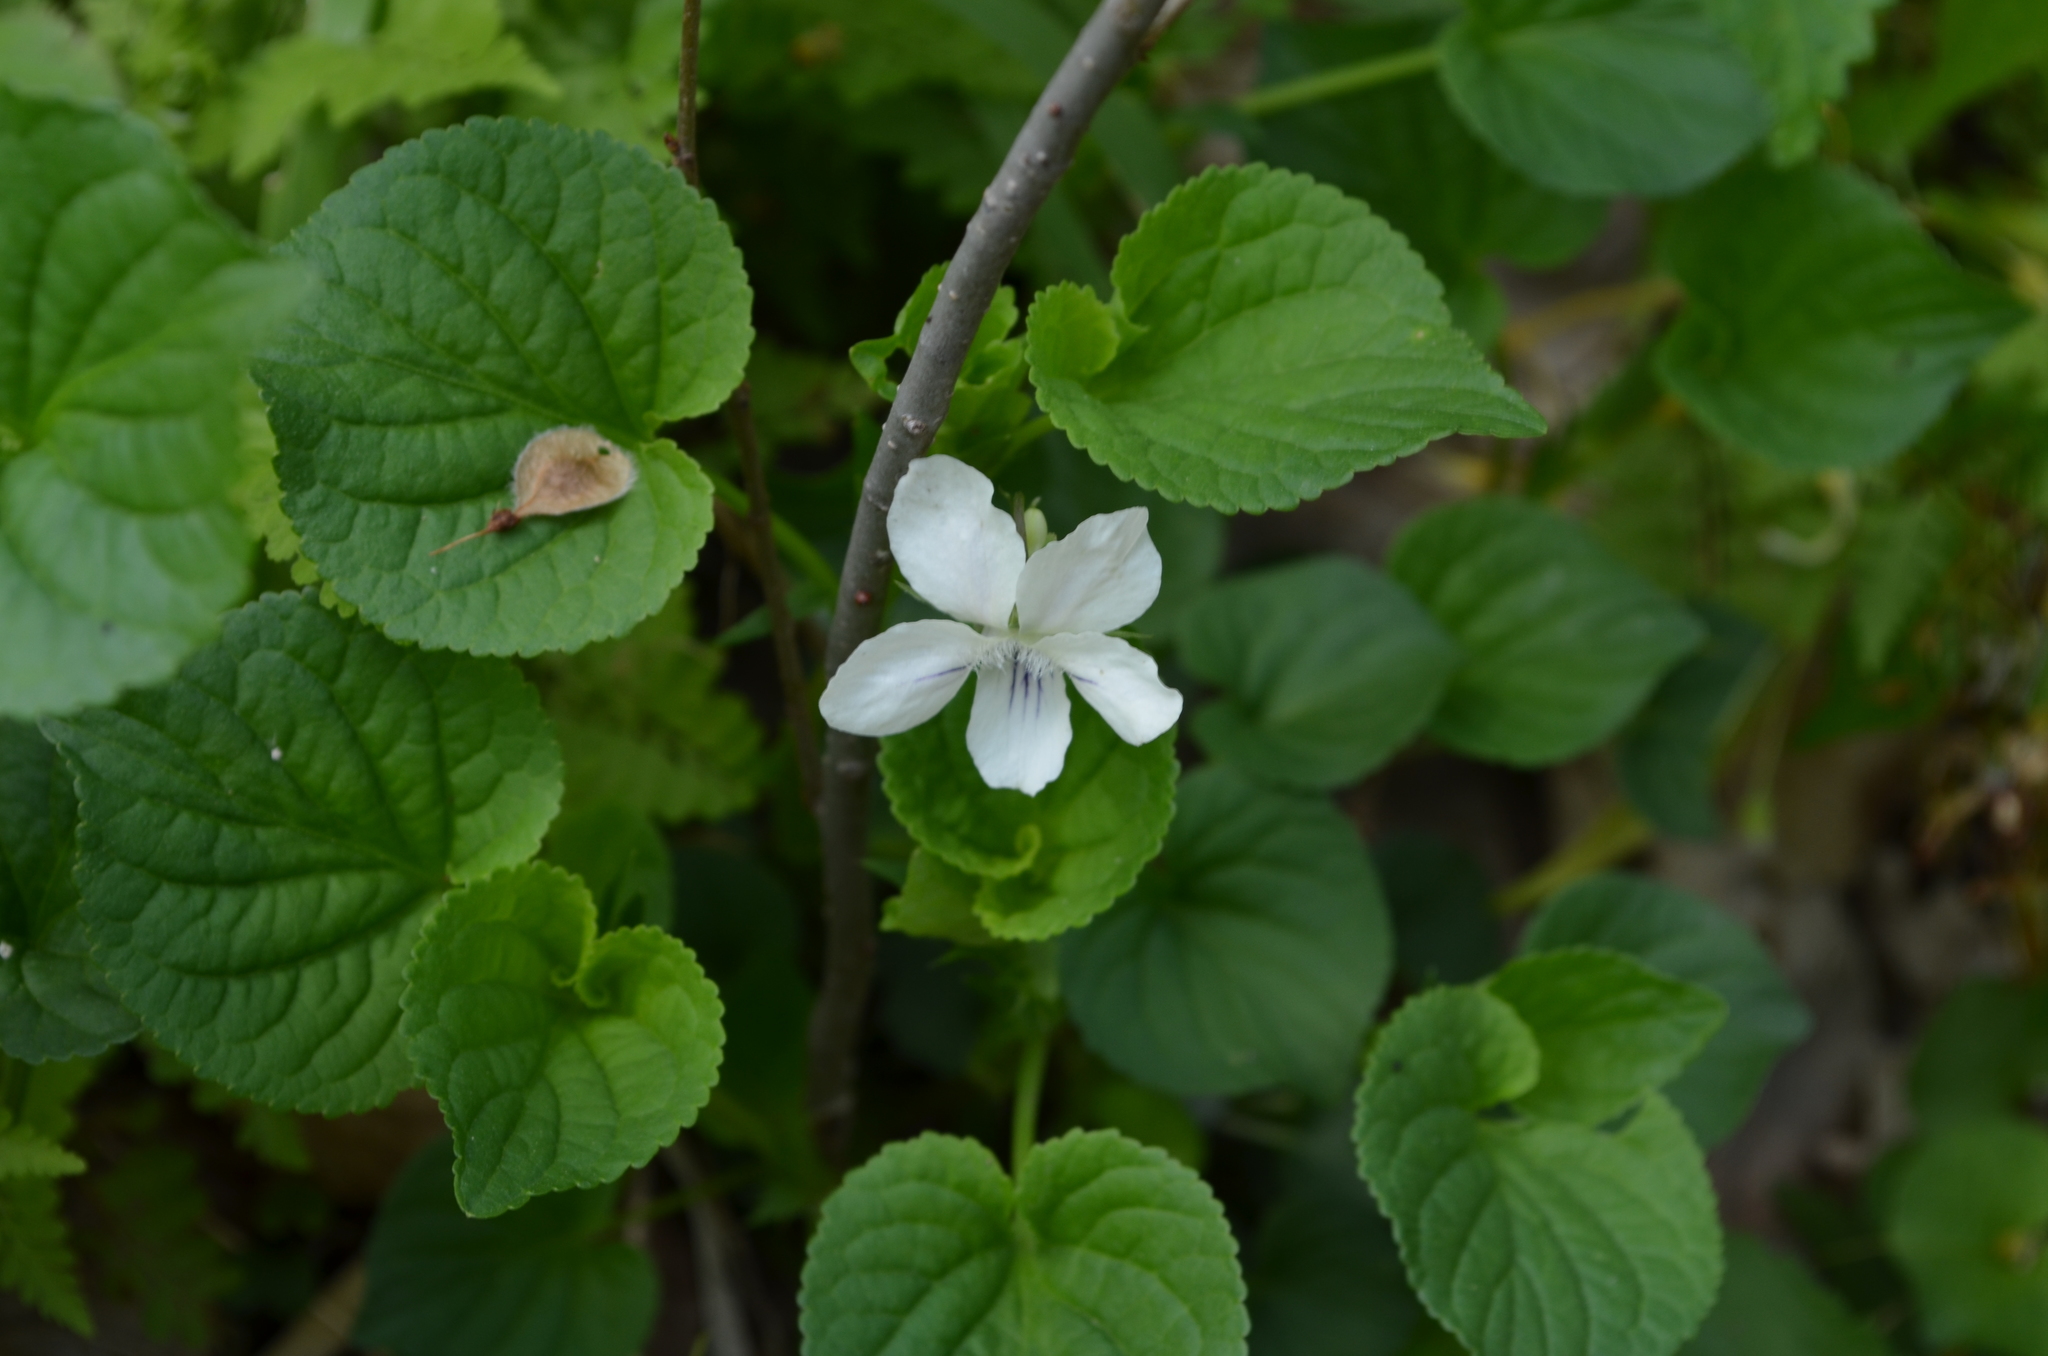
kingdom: Plantae
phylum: Tracheophyta
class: Magnoliopsida
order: Malpighiales
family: Violaceae
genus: Viola
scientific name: Viola striata
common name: Cream violet
